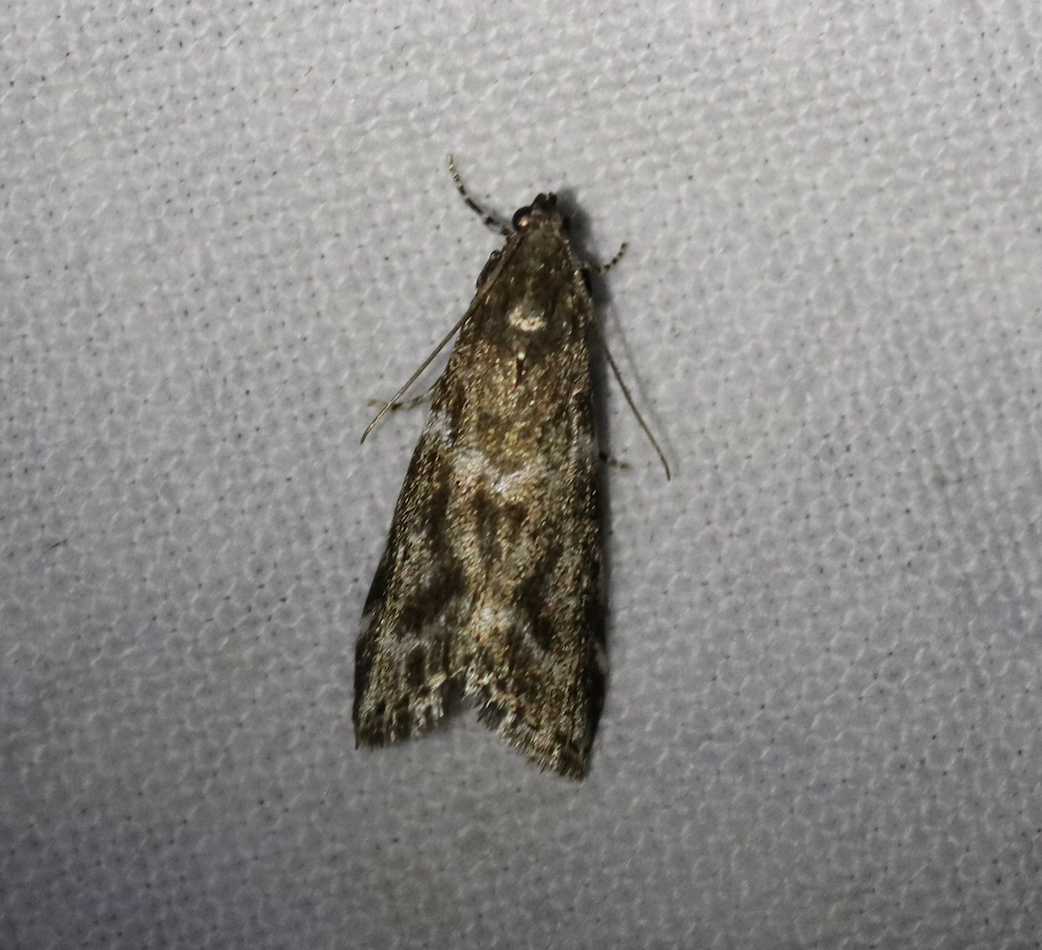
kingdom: Animalia
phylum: Arthropoda
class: Insecta
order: Lepidoptera
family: Pyralidae
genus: Assara
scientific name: Assara terebrella
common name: Dark spruce knot-horn
